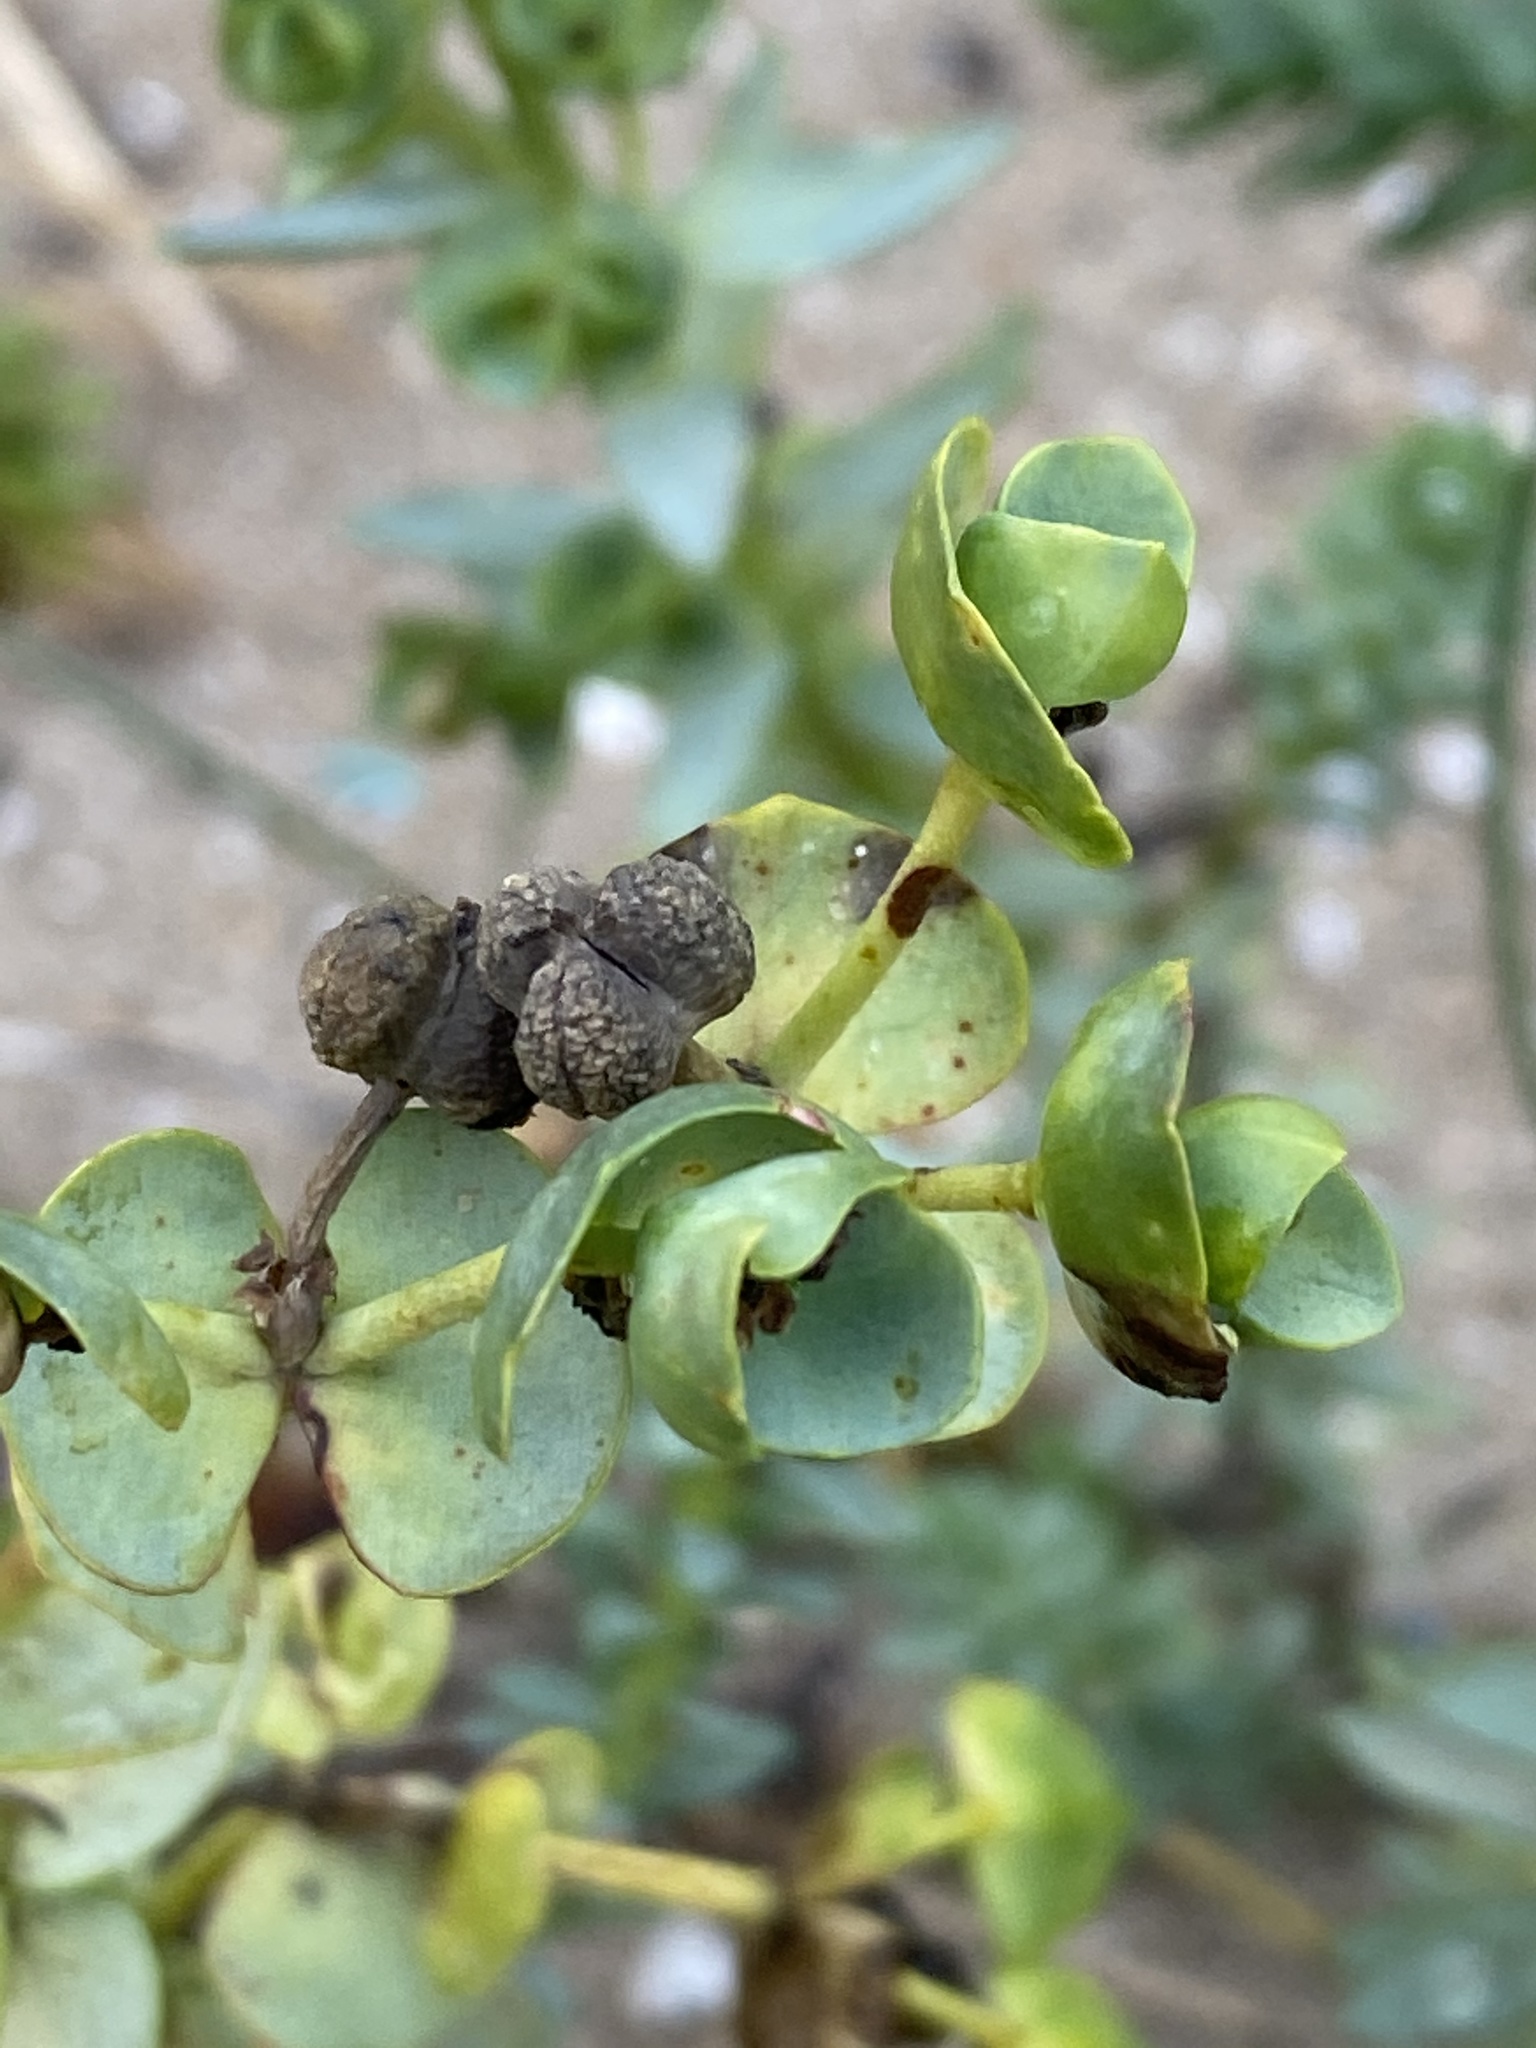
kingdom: Plantae
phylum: Tracheophyta
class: Magnoliopsida
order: Malpighiales
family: Euphorbiaceae
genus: Euphorbia
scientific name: Euphorbia paralias
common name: Sea spurge
